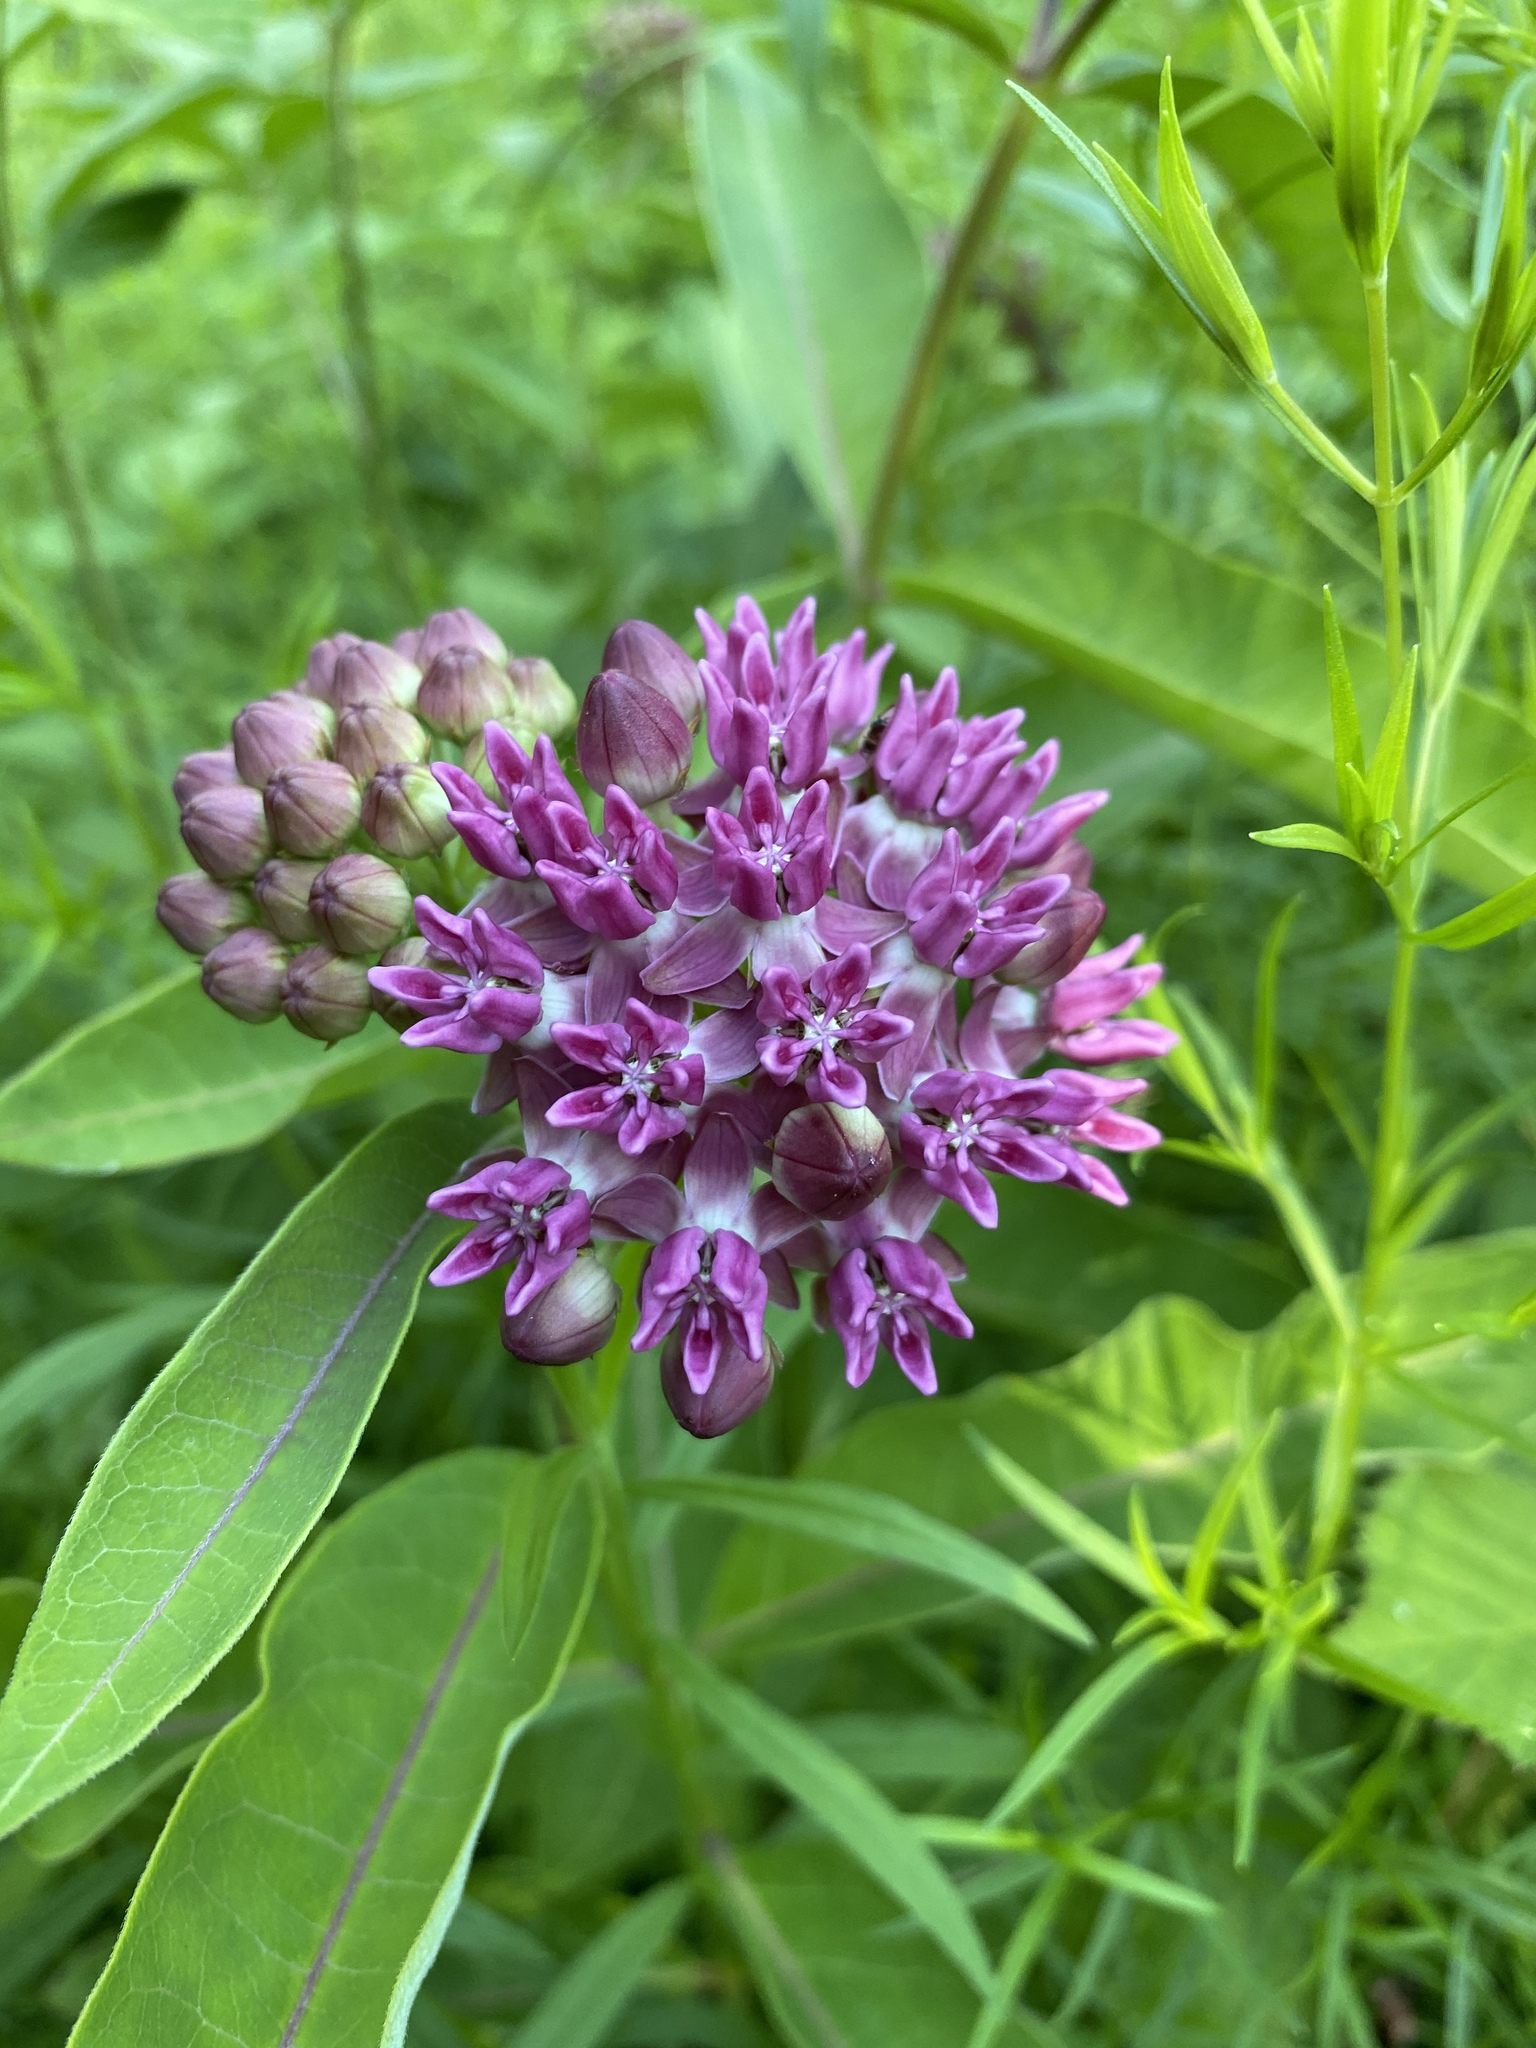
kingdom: Plantae
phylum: Tracheophyta
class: Magnoliopsida
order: Gentianales
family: Apocynaceae
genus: Asclepias
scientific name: Asclepias purpurascens
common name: Purple milkweed
